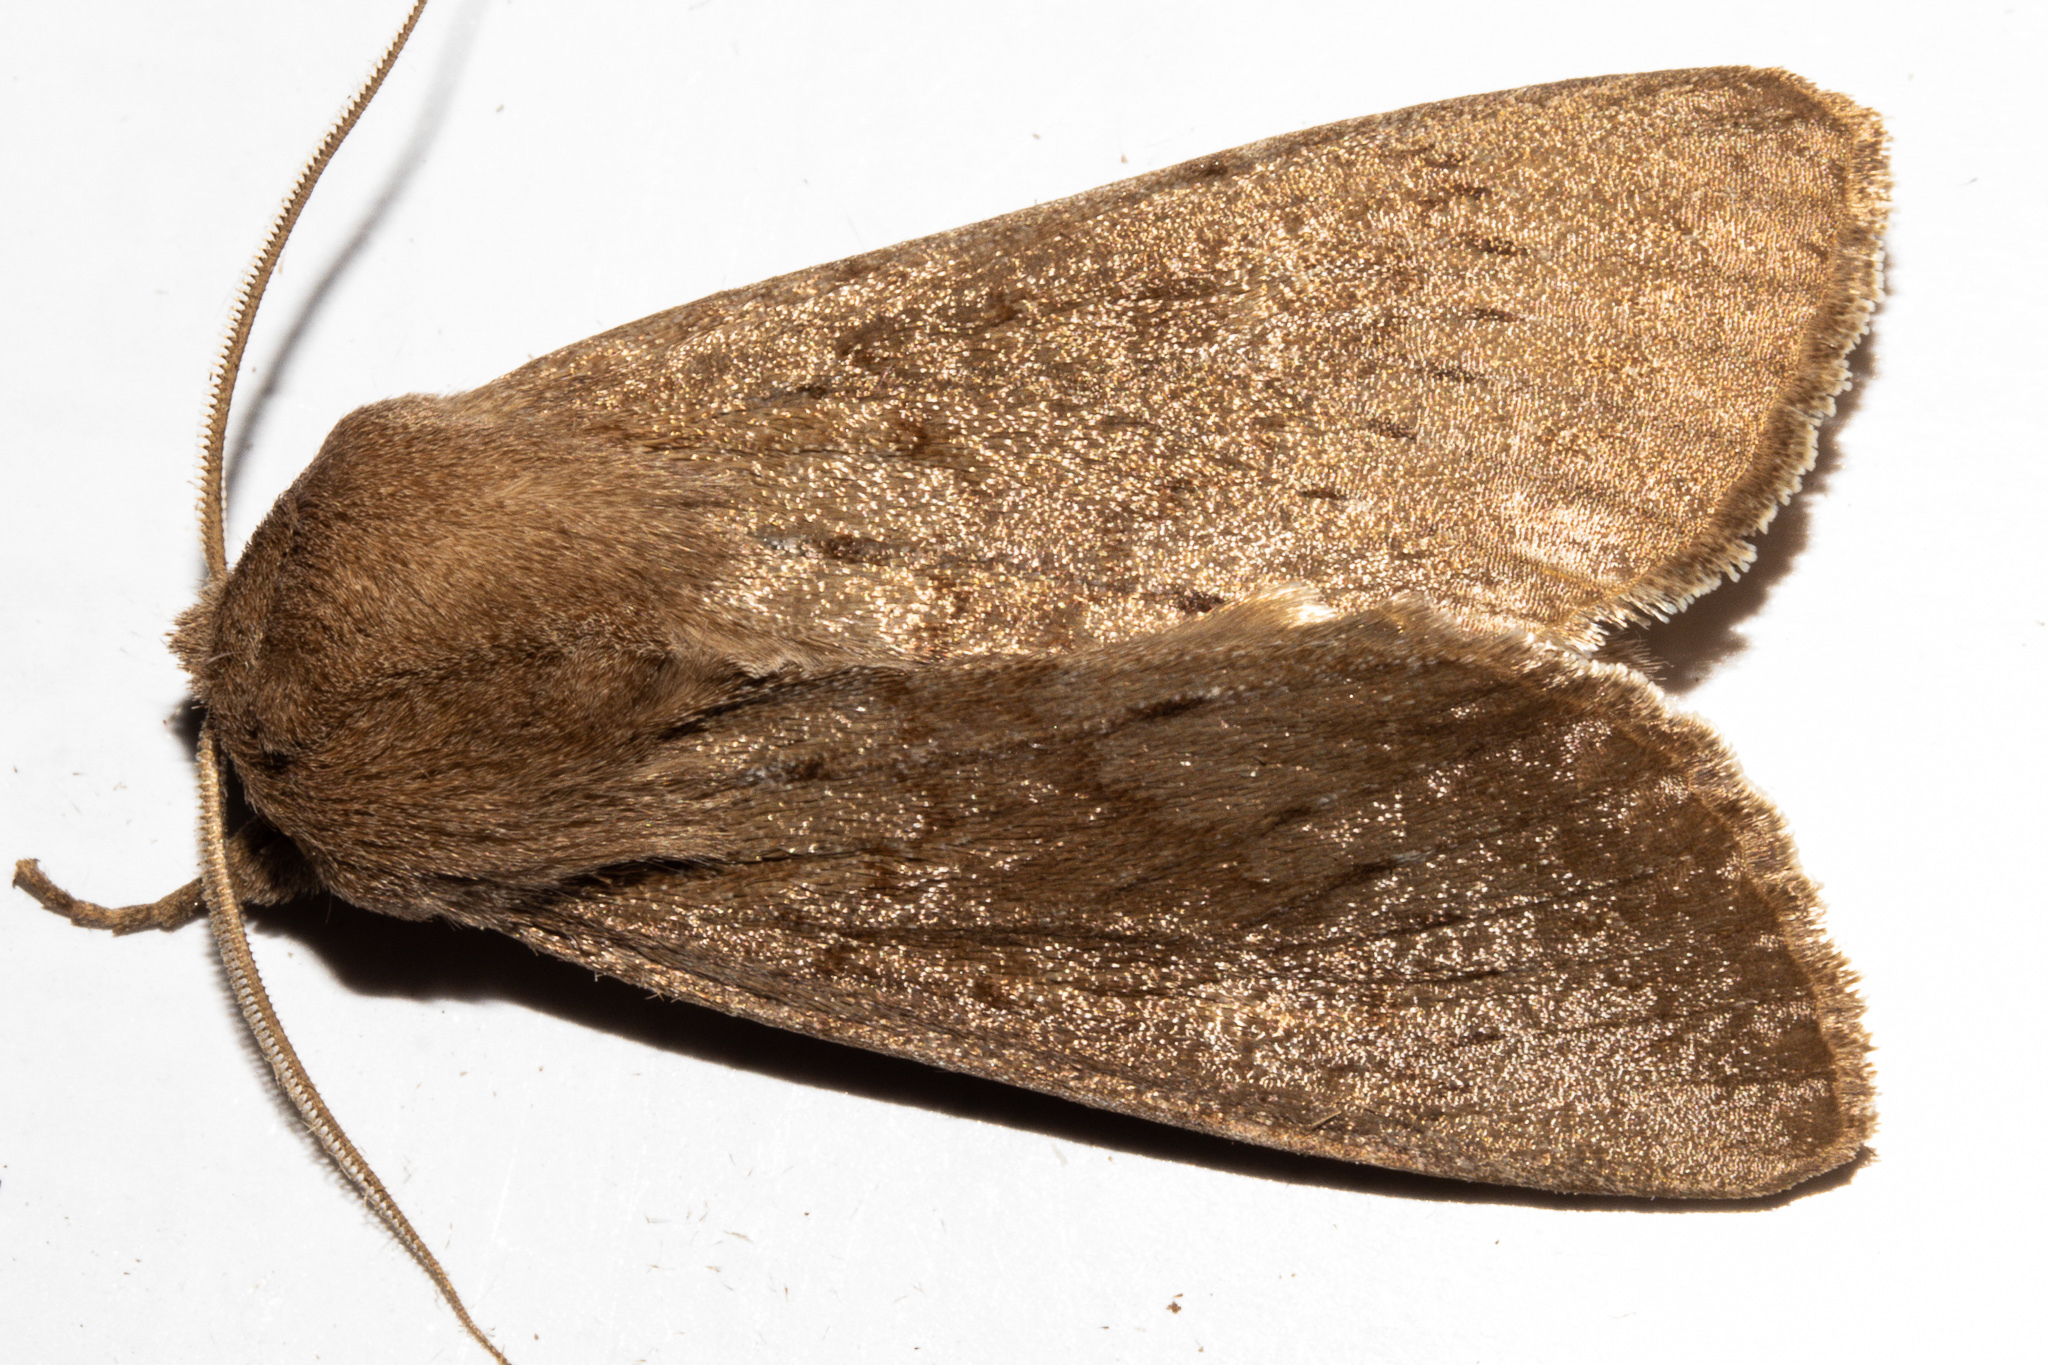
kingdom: Animalia
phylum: Arthropoda
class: Insecta
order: Lepidoptera
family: Noctuidae
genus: Ichneutica
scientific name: Ichneutica nullifera
